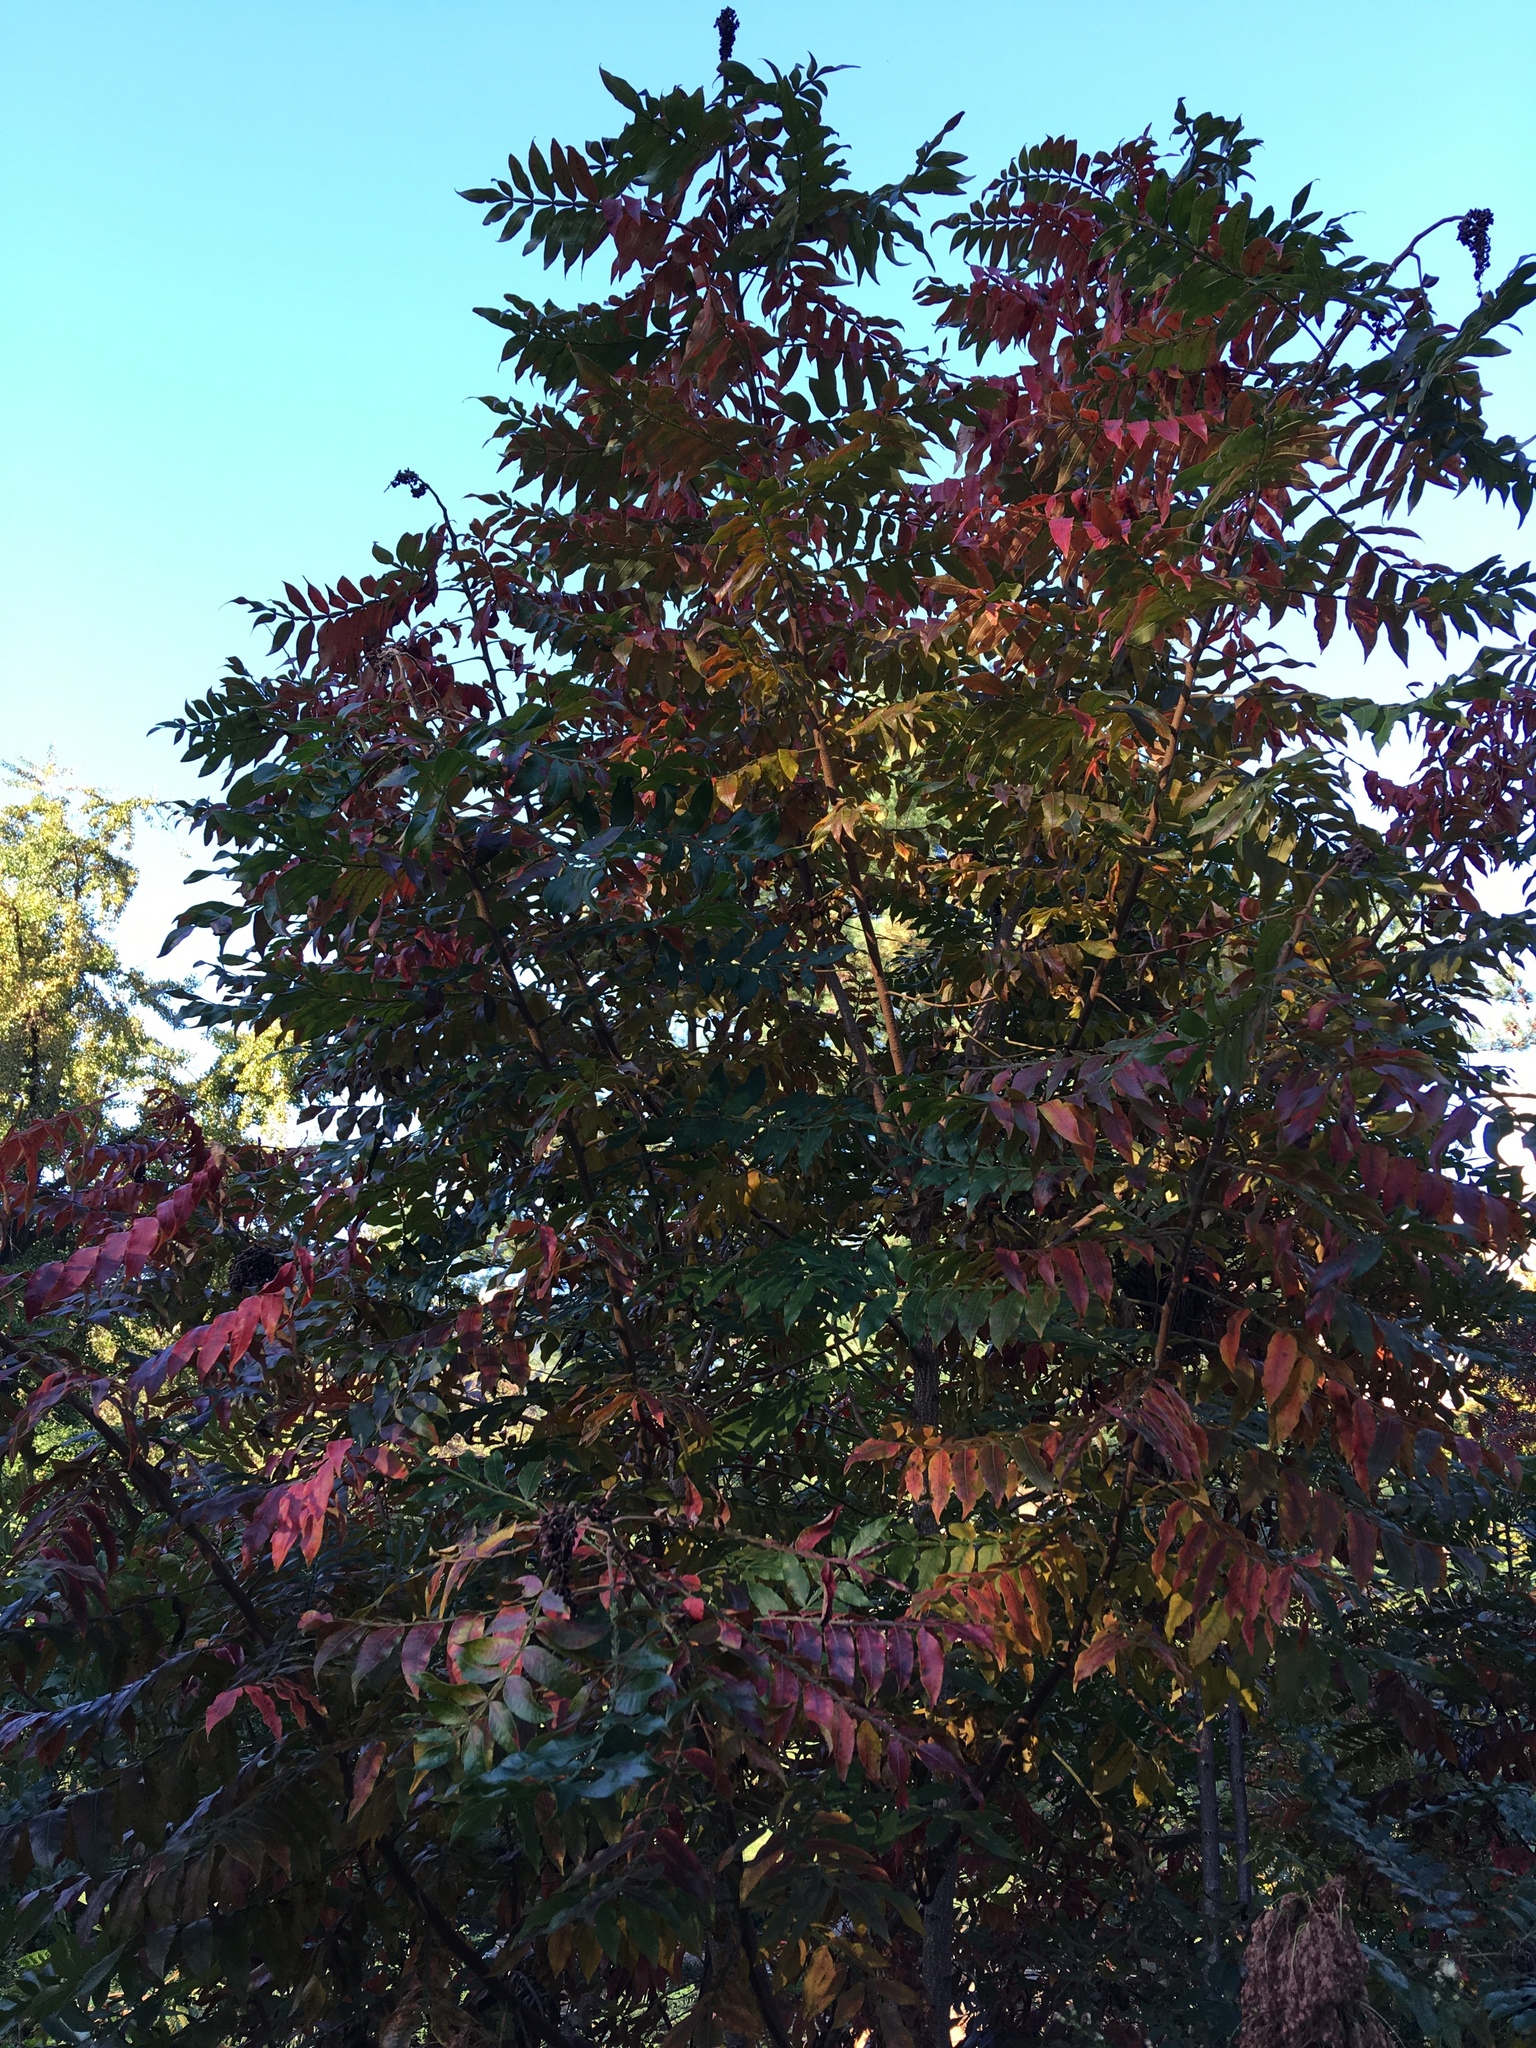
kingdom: Plantae
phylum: Tracheophyta
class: Magnoliopsida
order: Sapindales
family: Anacardiaceae
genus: Rhus
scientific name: Rhus copallina
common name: Shining sumac
